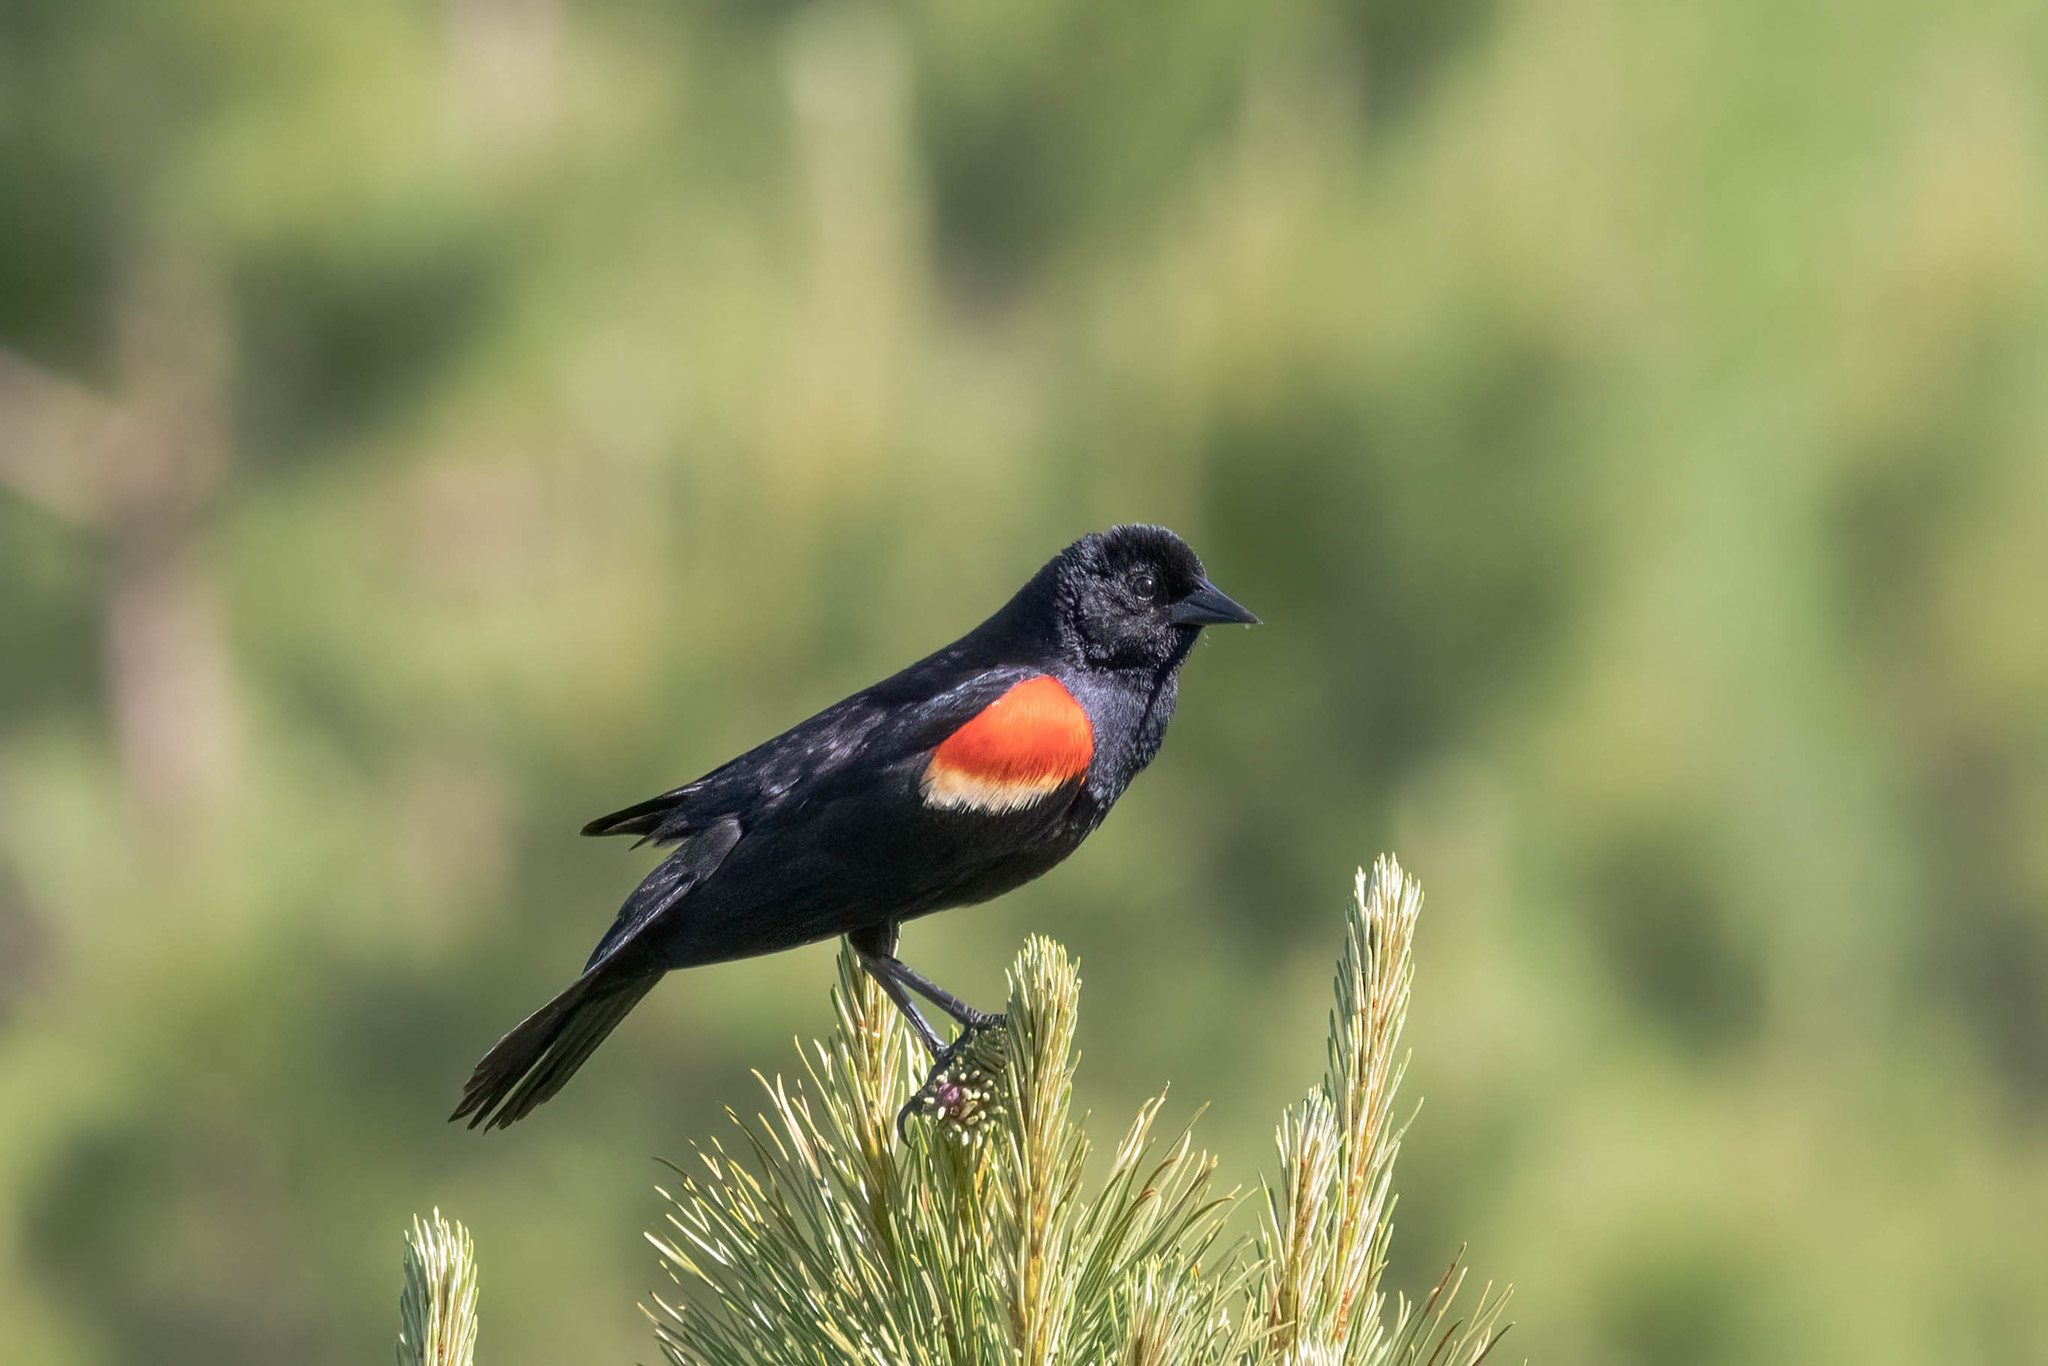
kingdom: Animalia
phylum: Chordata
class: Aves
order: Passeriformes
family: Icteridae
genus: Agelaius
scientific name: Agelaius phoeniceus
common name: Red-winged blackbird
